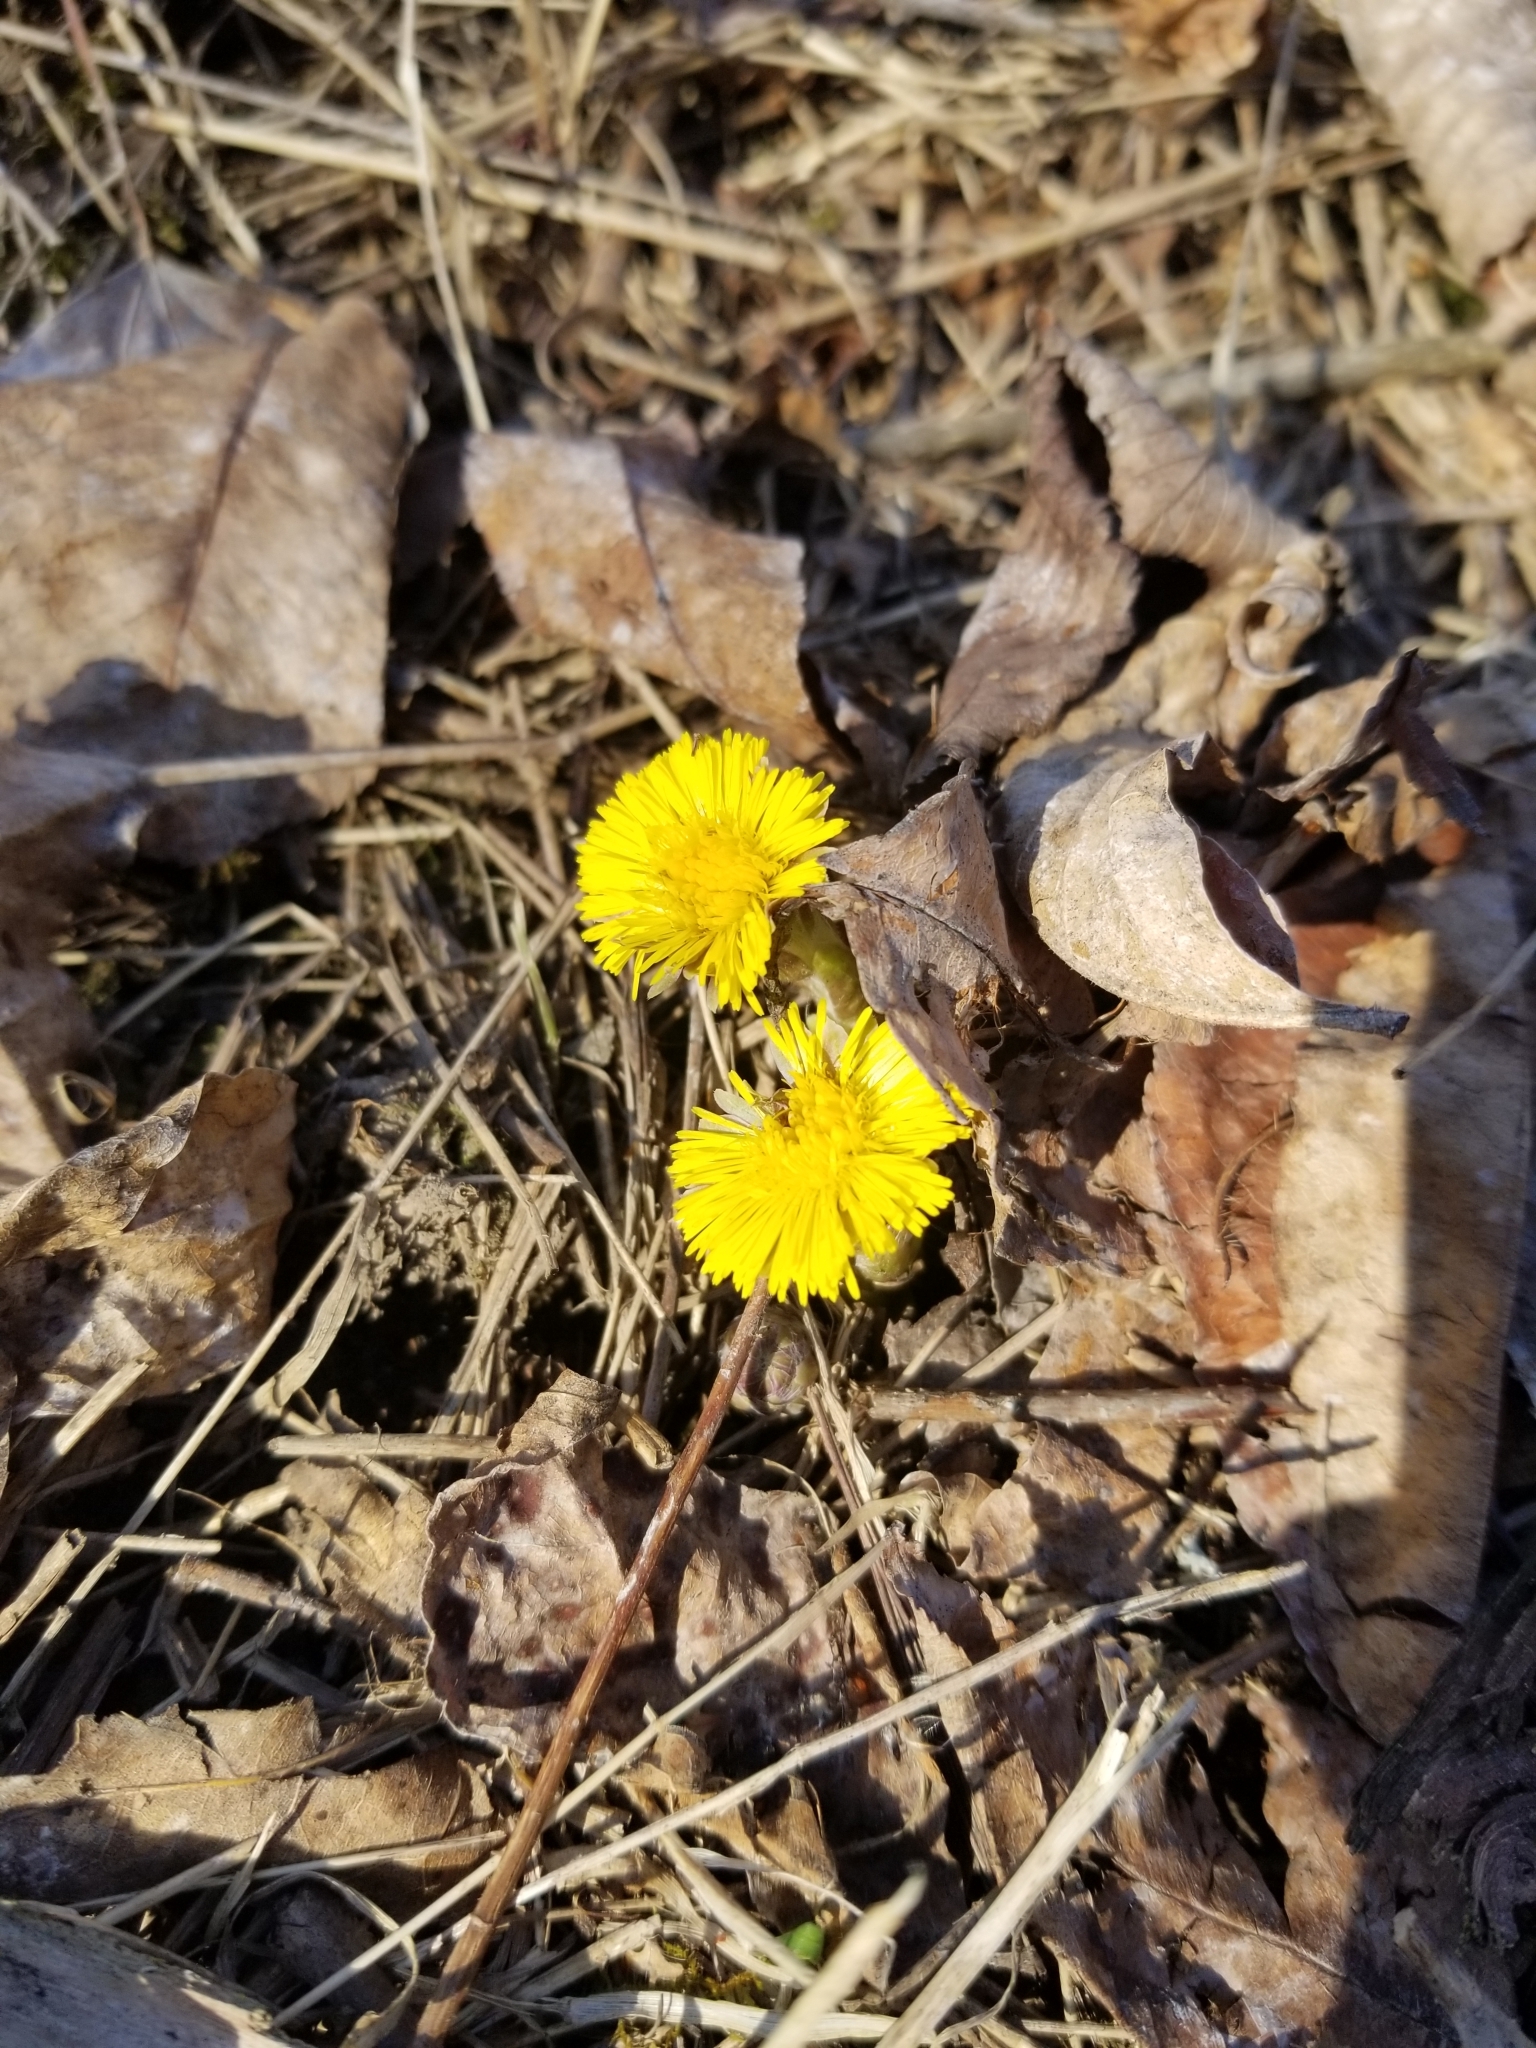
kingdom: Plantae
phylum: Tracheophyta
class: Magnoliopsida
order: Asterales
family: Asteraceae
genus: Tussilago
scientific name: Tussilago farfara
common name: Coltsfoot
